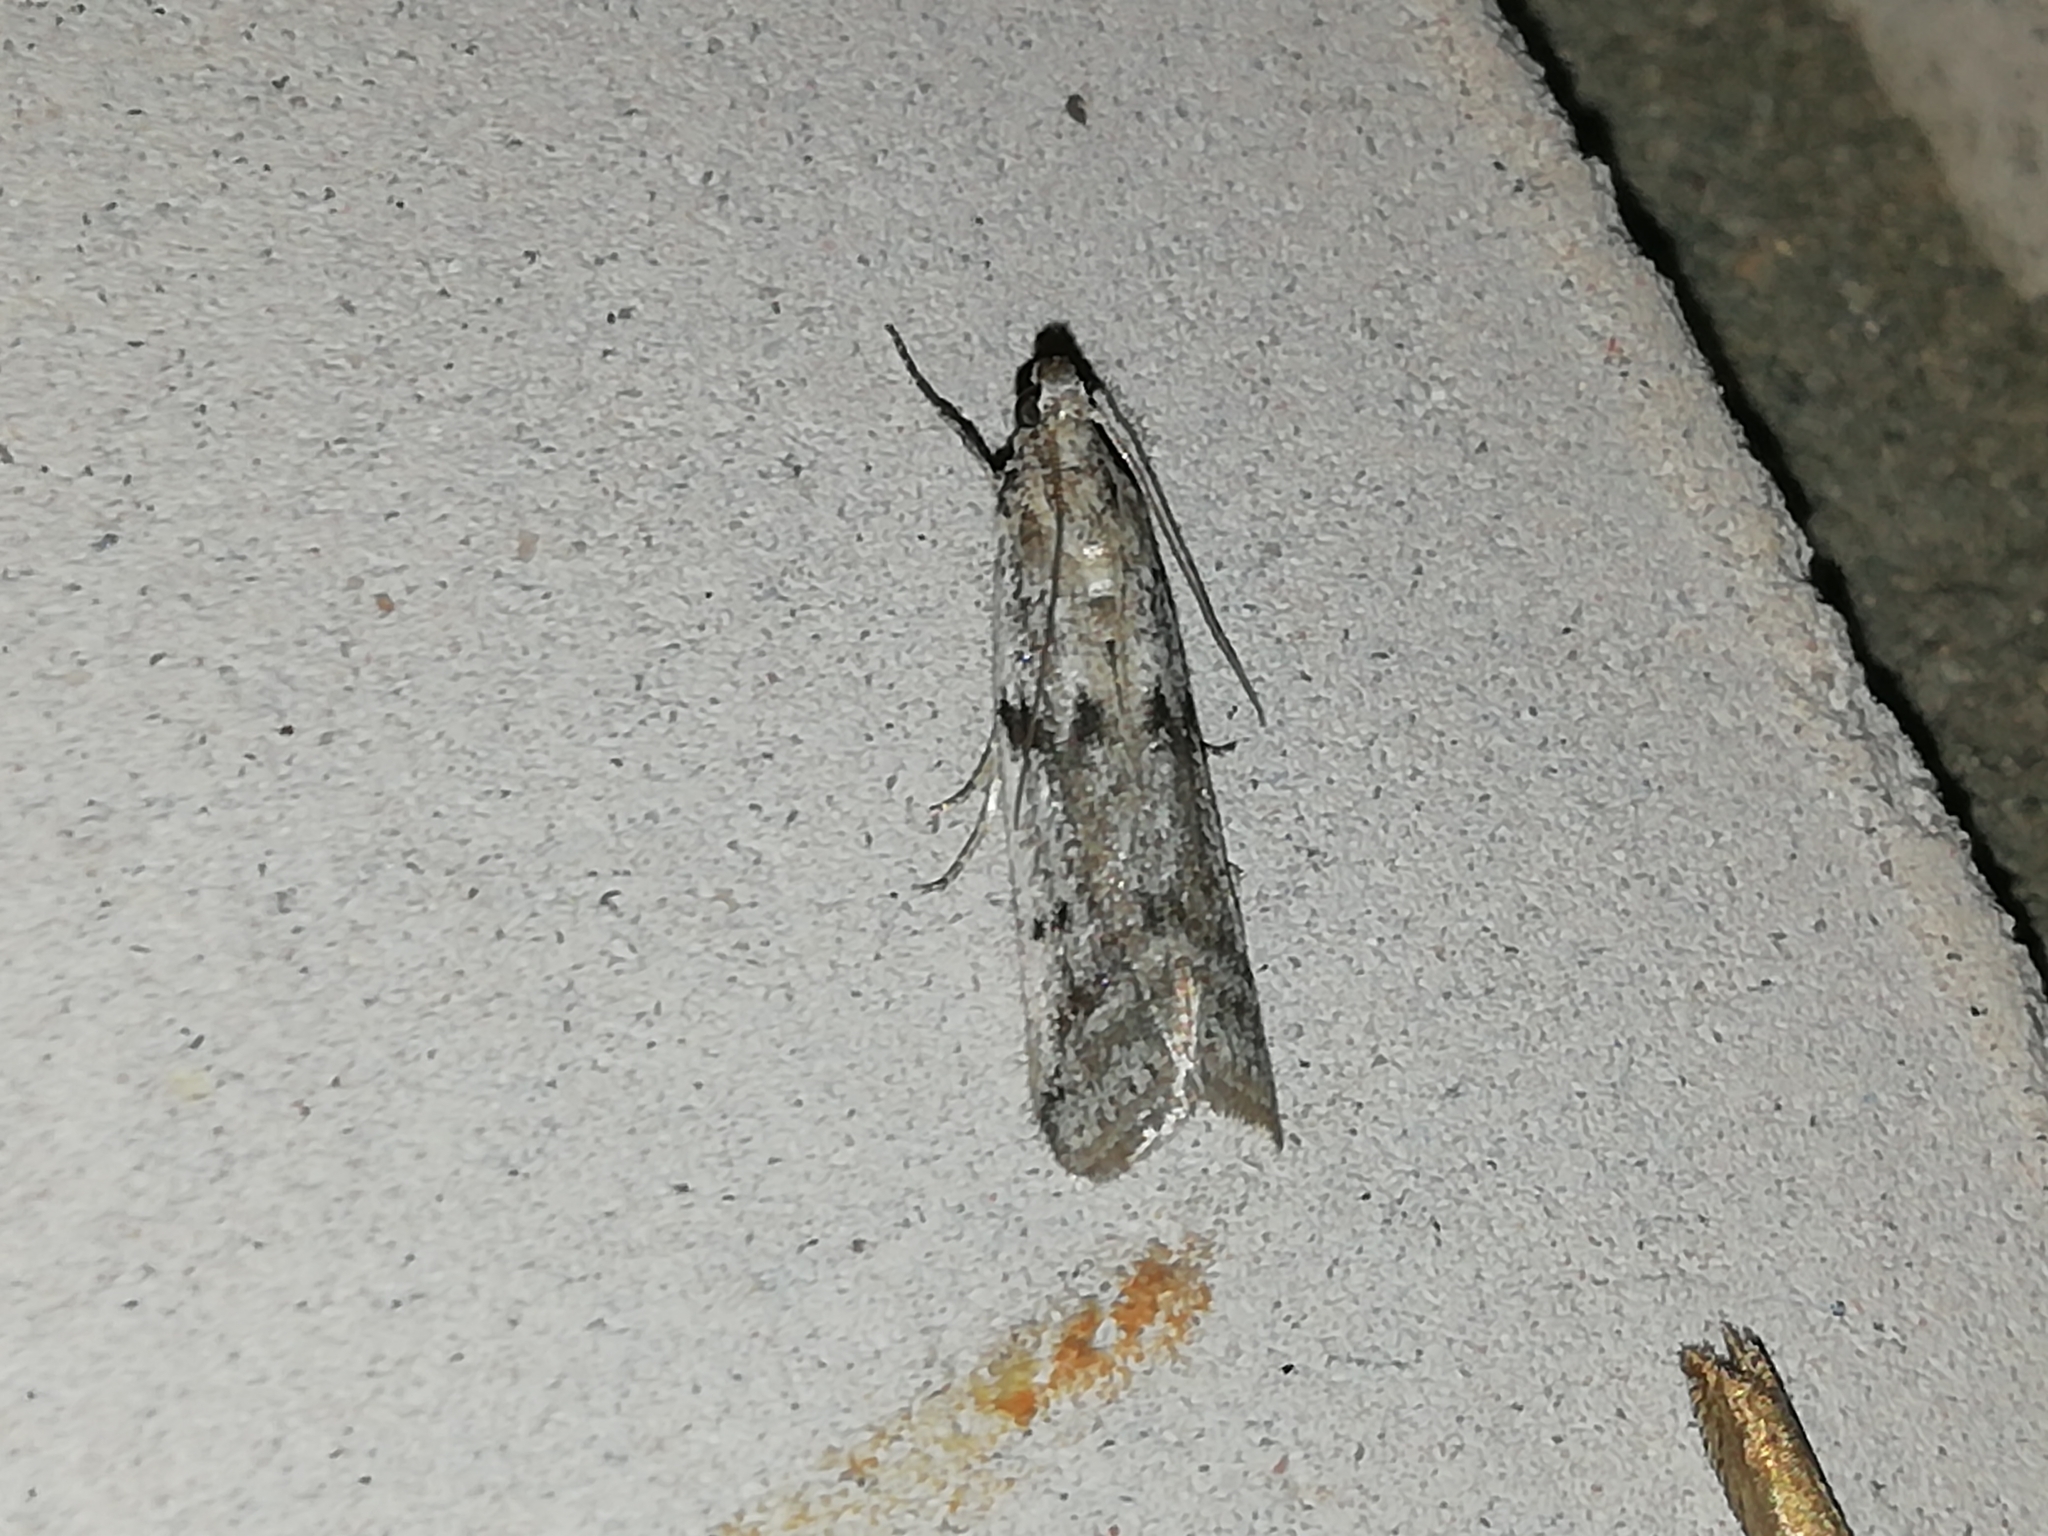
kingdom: Animalia
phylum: Arthropoda
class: Insecta
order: Lepidoptera
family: Pyralidae
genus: Phycitodes
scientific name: Phycitodes binaevella
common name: Ermine knot-horn
